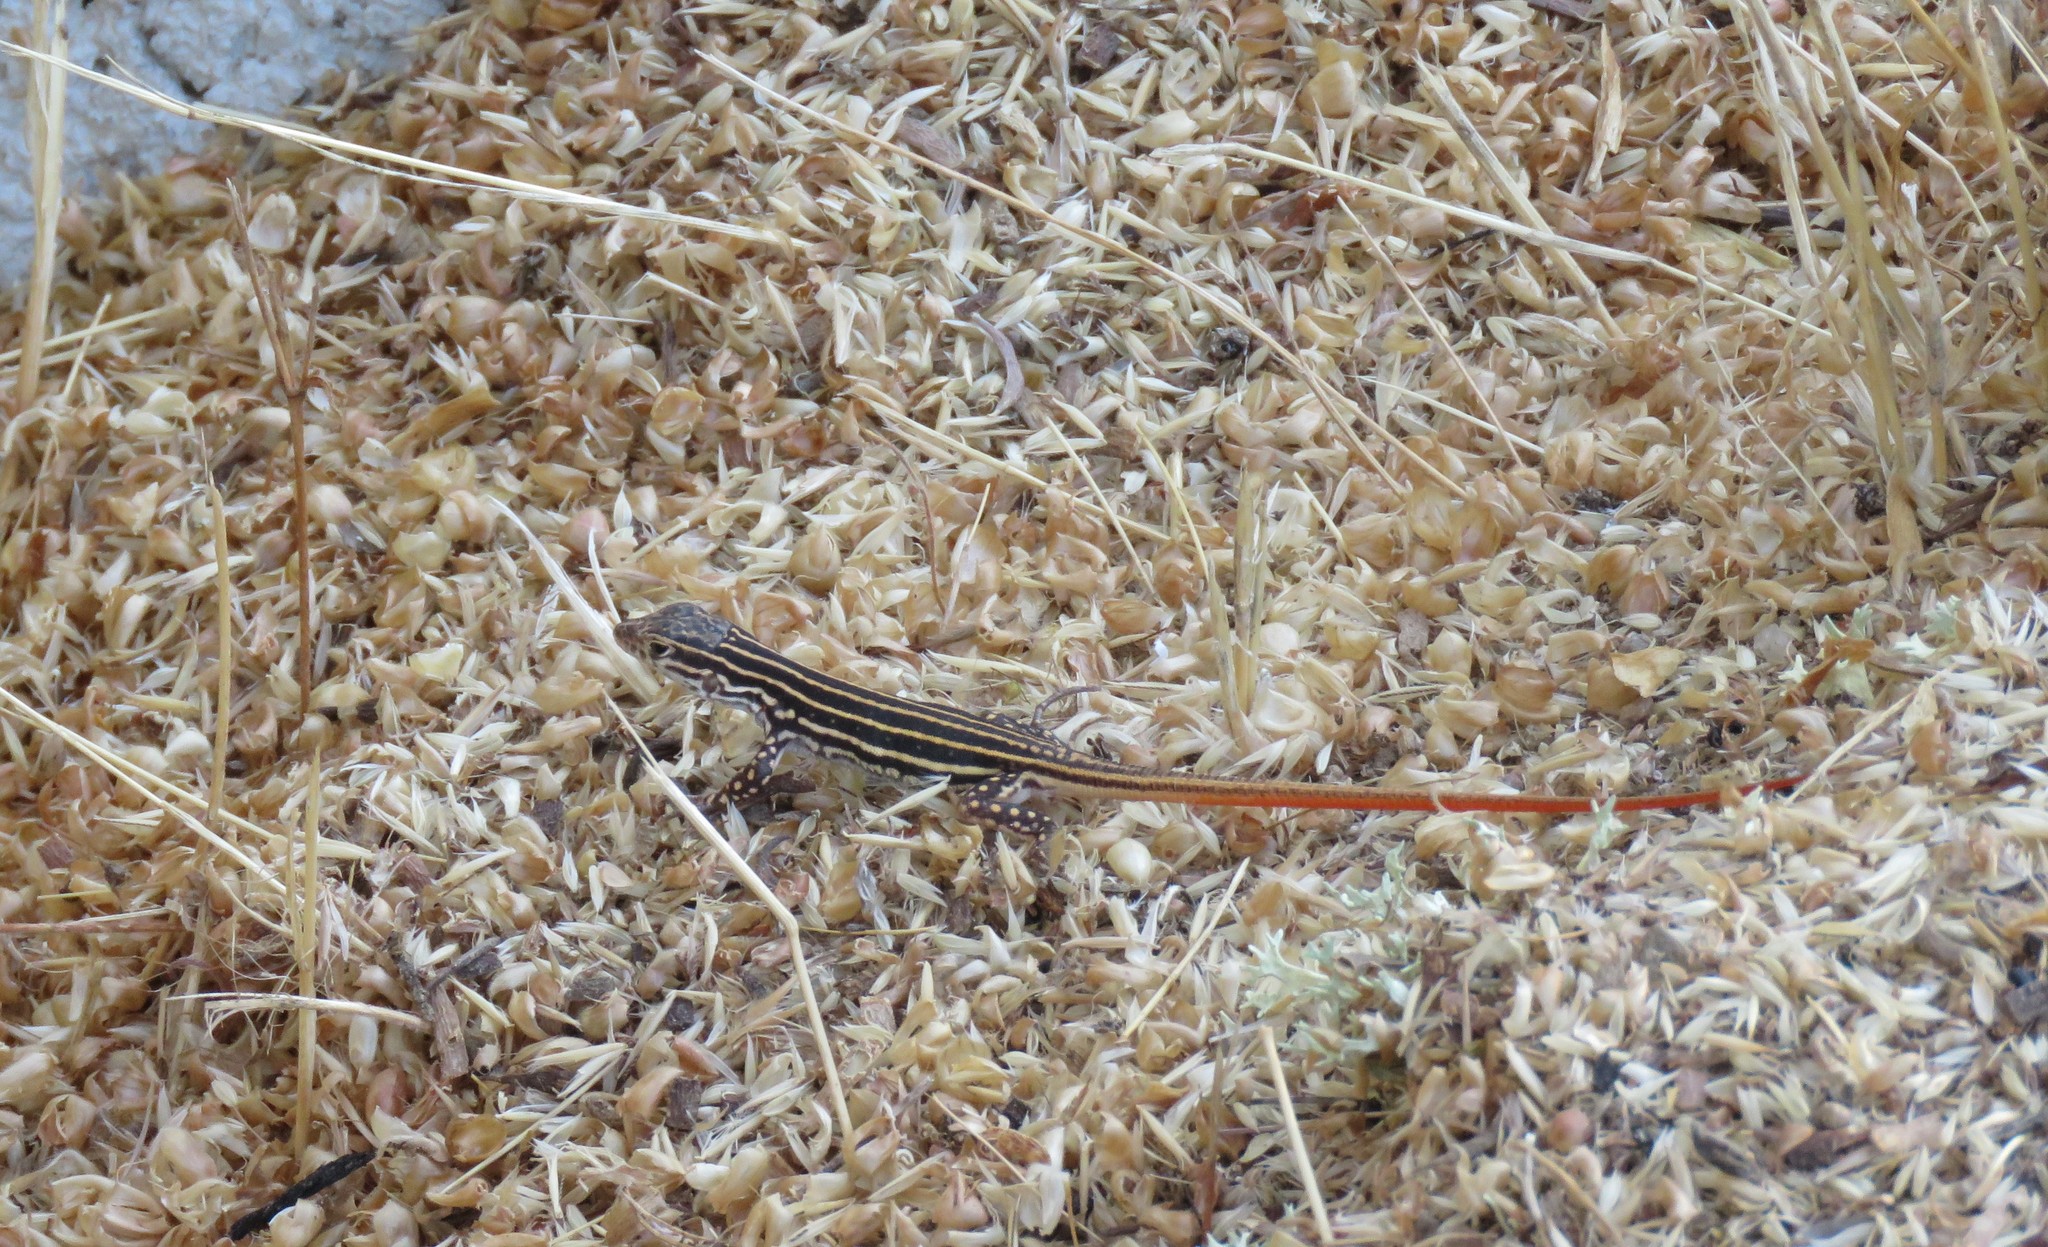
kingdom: Animalia
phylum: Chordata
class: Squamata
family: Lacertidae
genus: Acanthodactylus
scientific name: Acanthodactylus erythrurus
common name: Spiny-footed lizard
